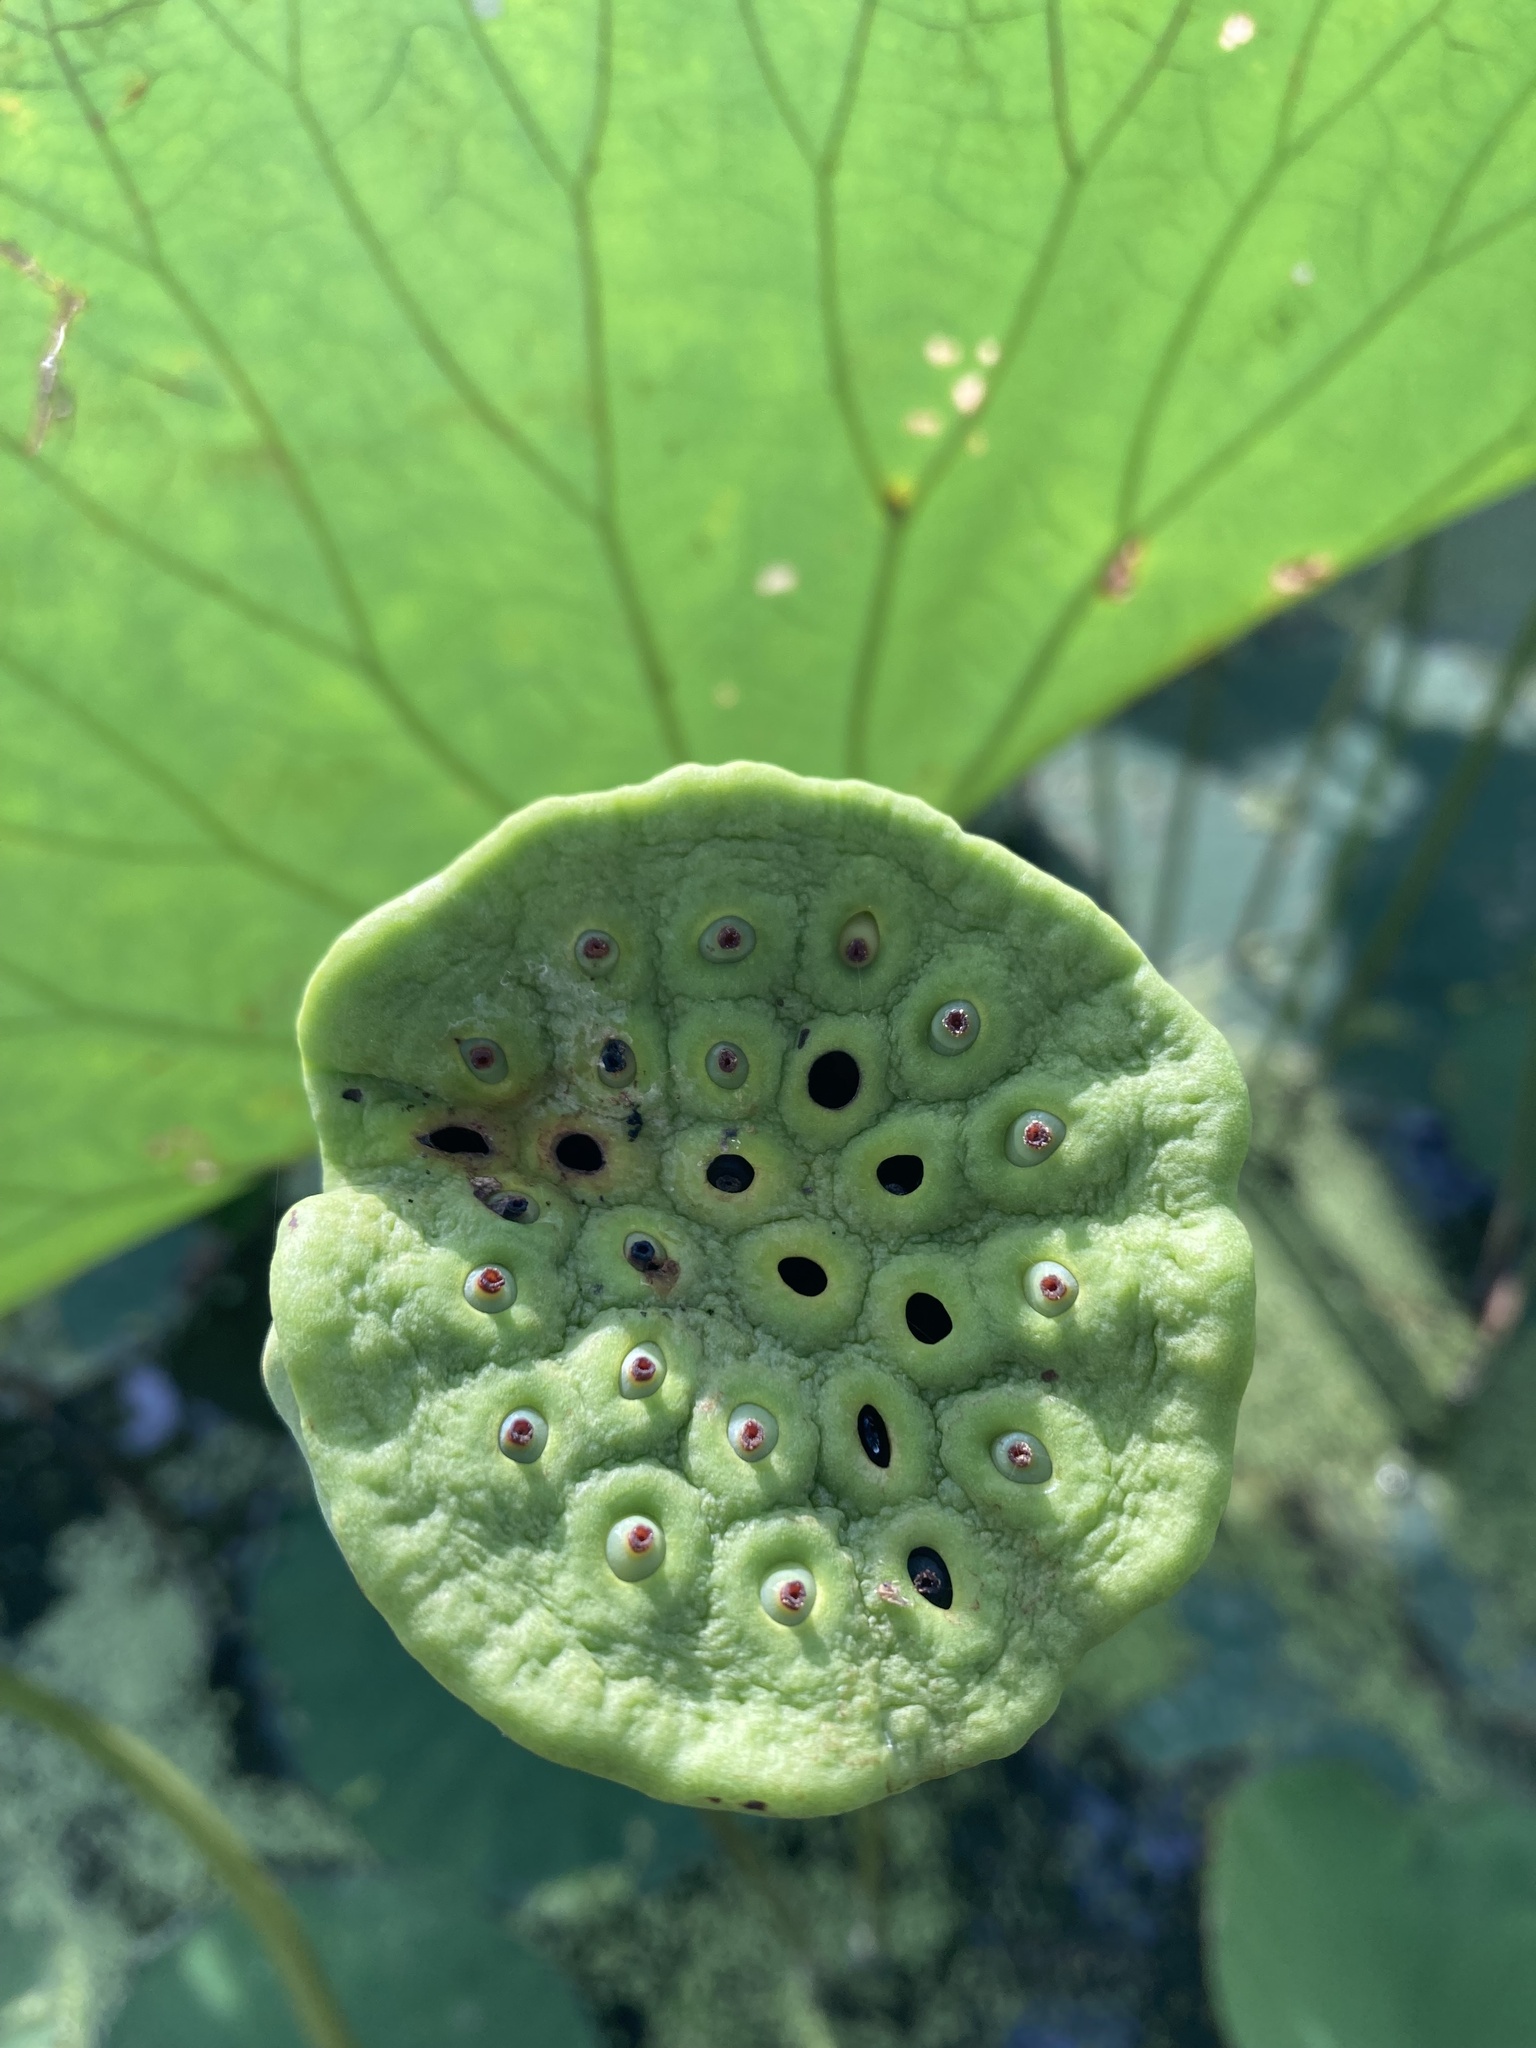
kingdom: Plantae
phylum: Tracheophyta
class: Magnoliopsida
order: Proteales
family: Nelumbonaceae
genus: Nelumbo
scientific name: Nelumbo lutea
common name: American lotus
